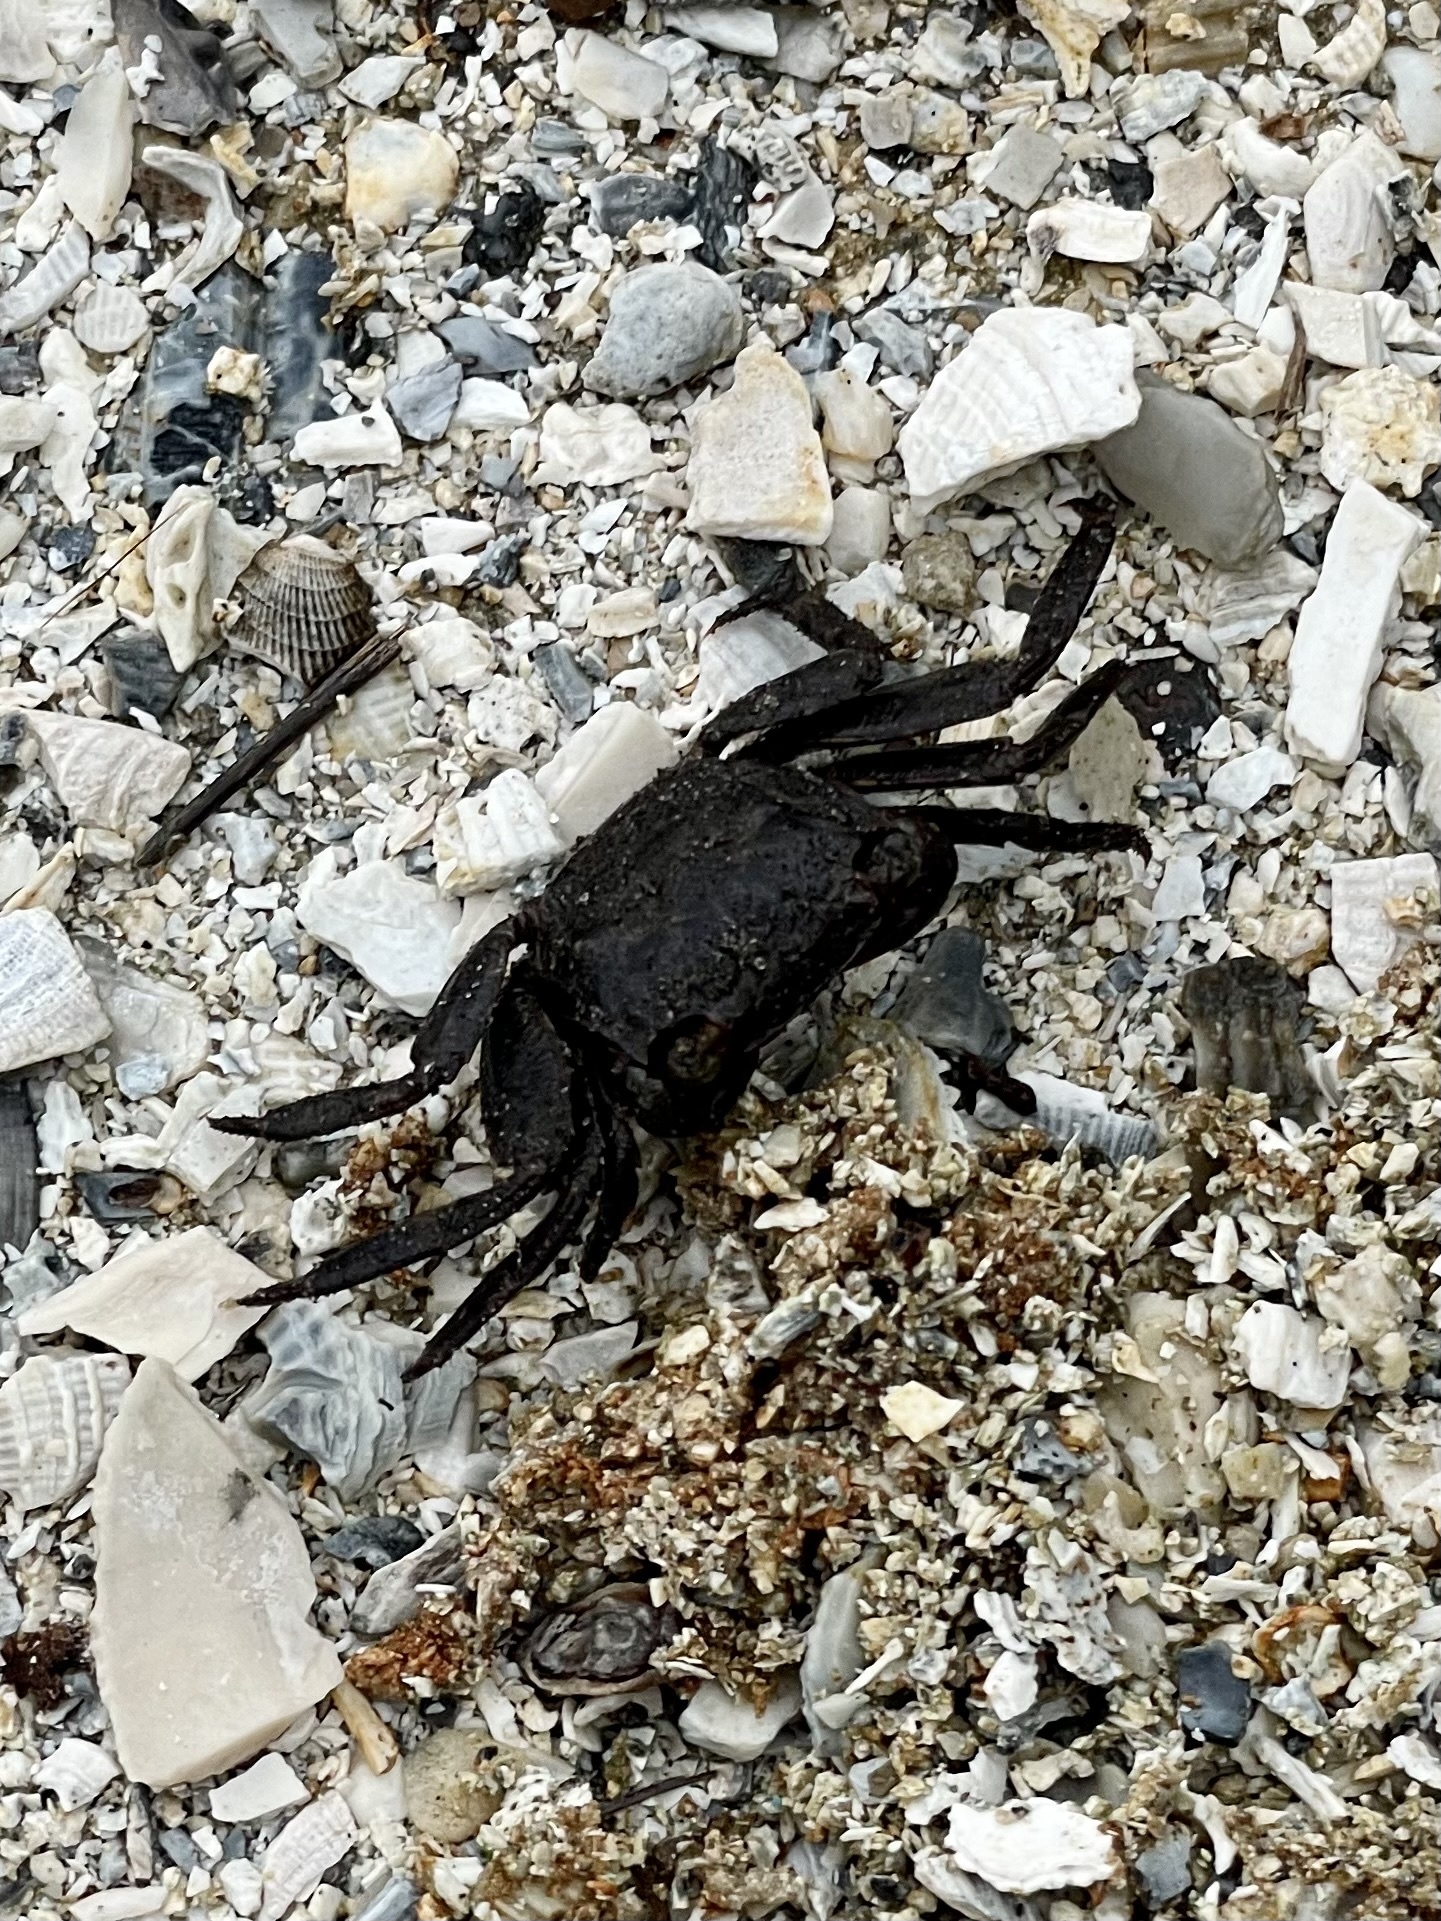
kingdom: Animalia
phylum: Arthropoda
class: Malacostraca
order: Decapoda
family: Sesarmidae
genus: Armases
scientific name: Armases cinereum
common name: Squareback marsh crab
